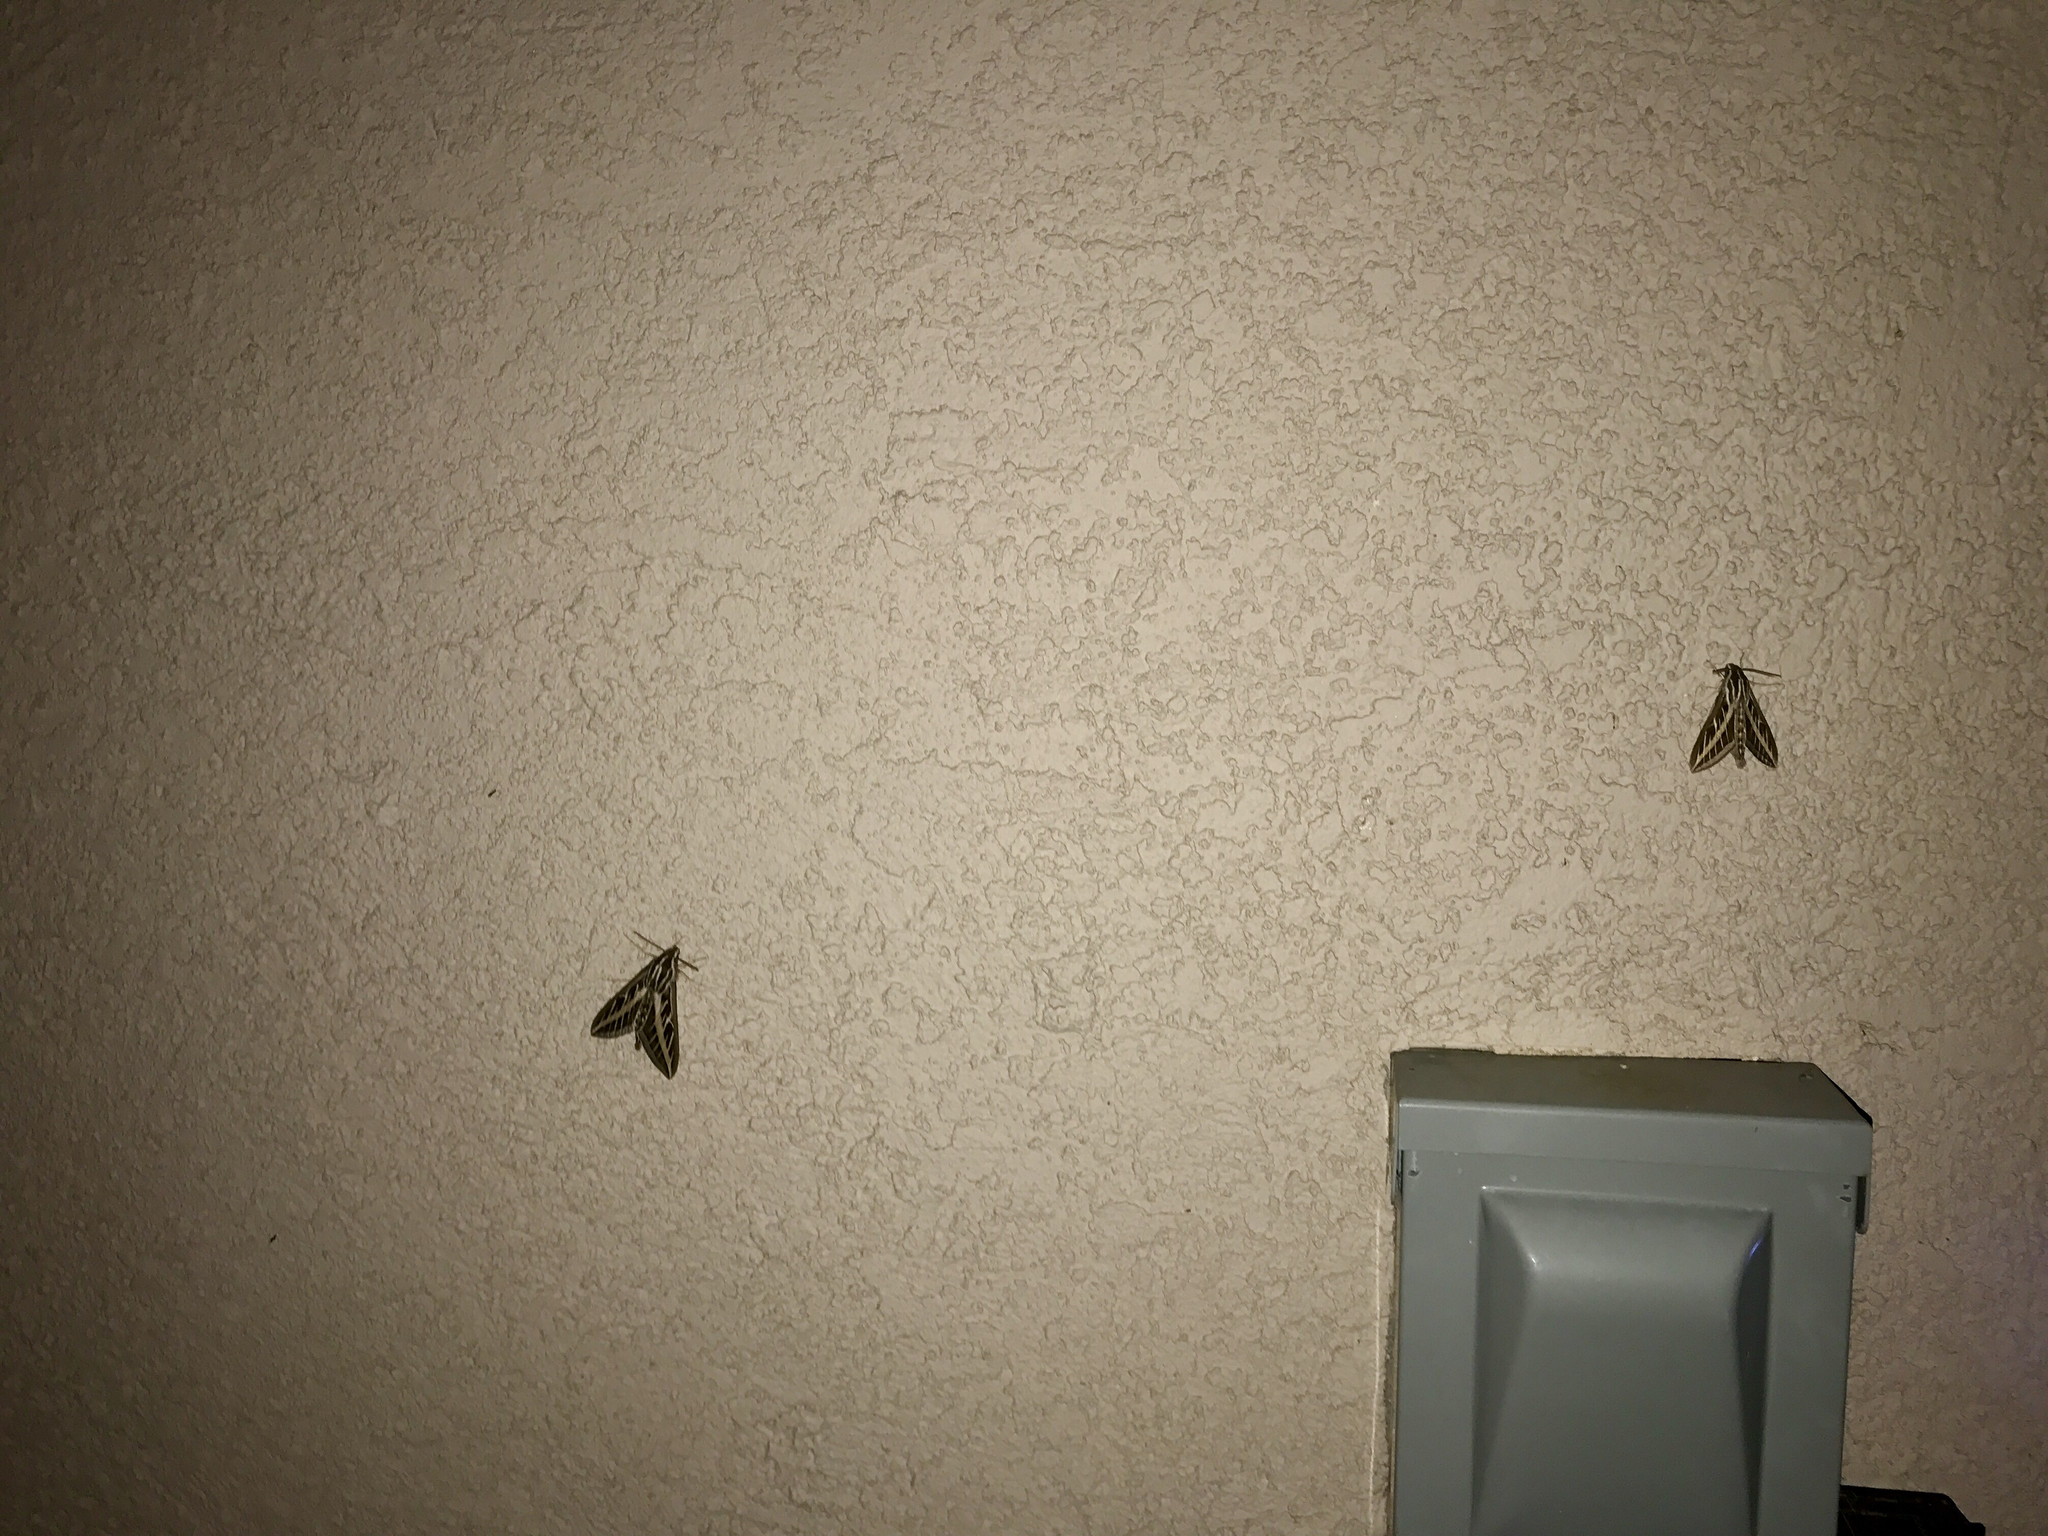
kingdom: Animalia
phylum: Arthropoda
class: Insecta
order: Lepidoptera
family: Sphingidae
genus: Hyles
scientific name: Hyles lineata
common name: White-lined sphinx
